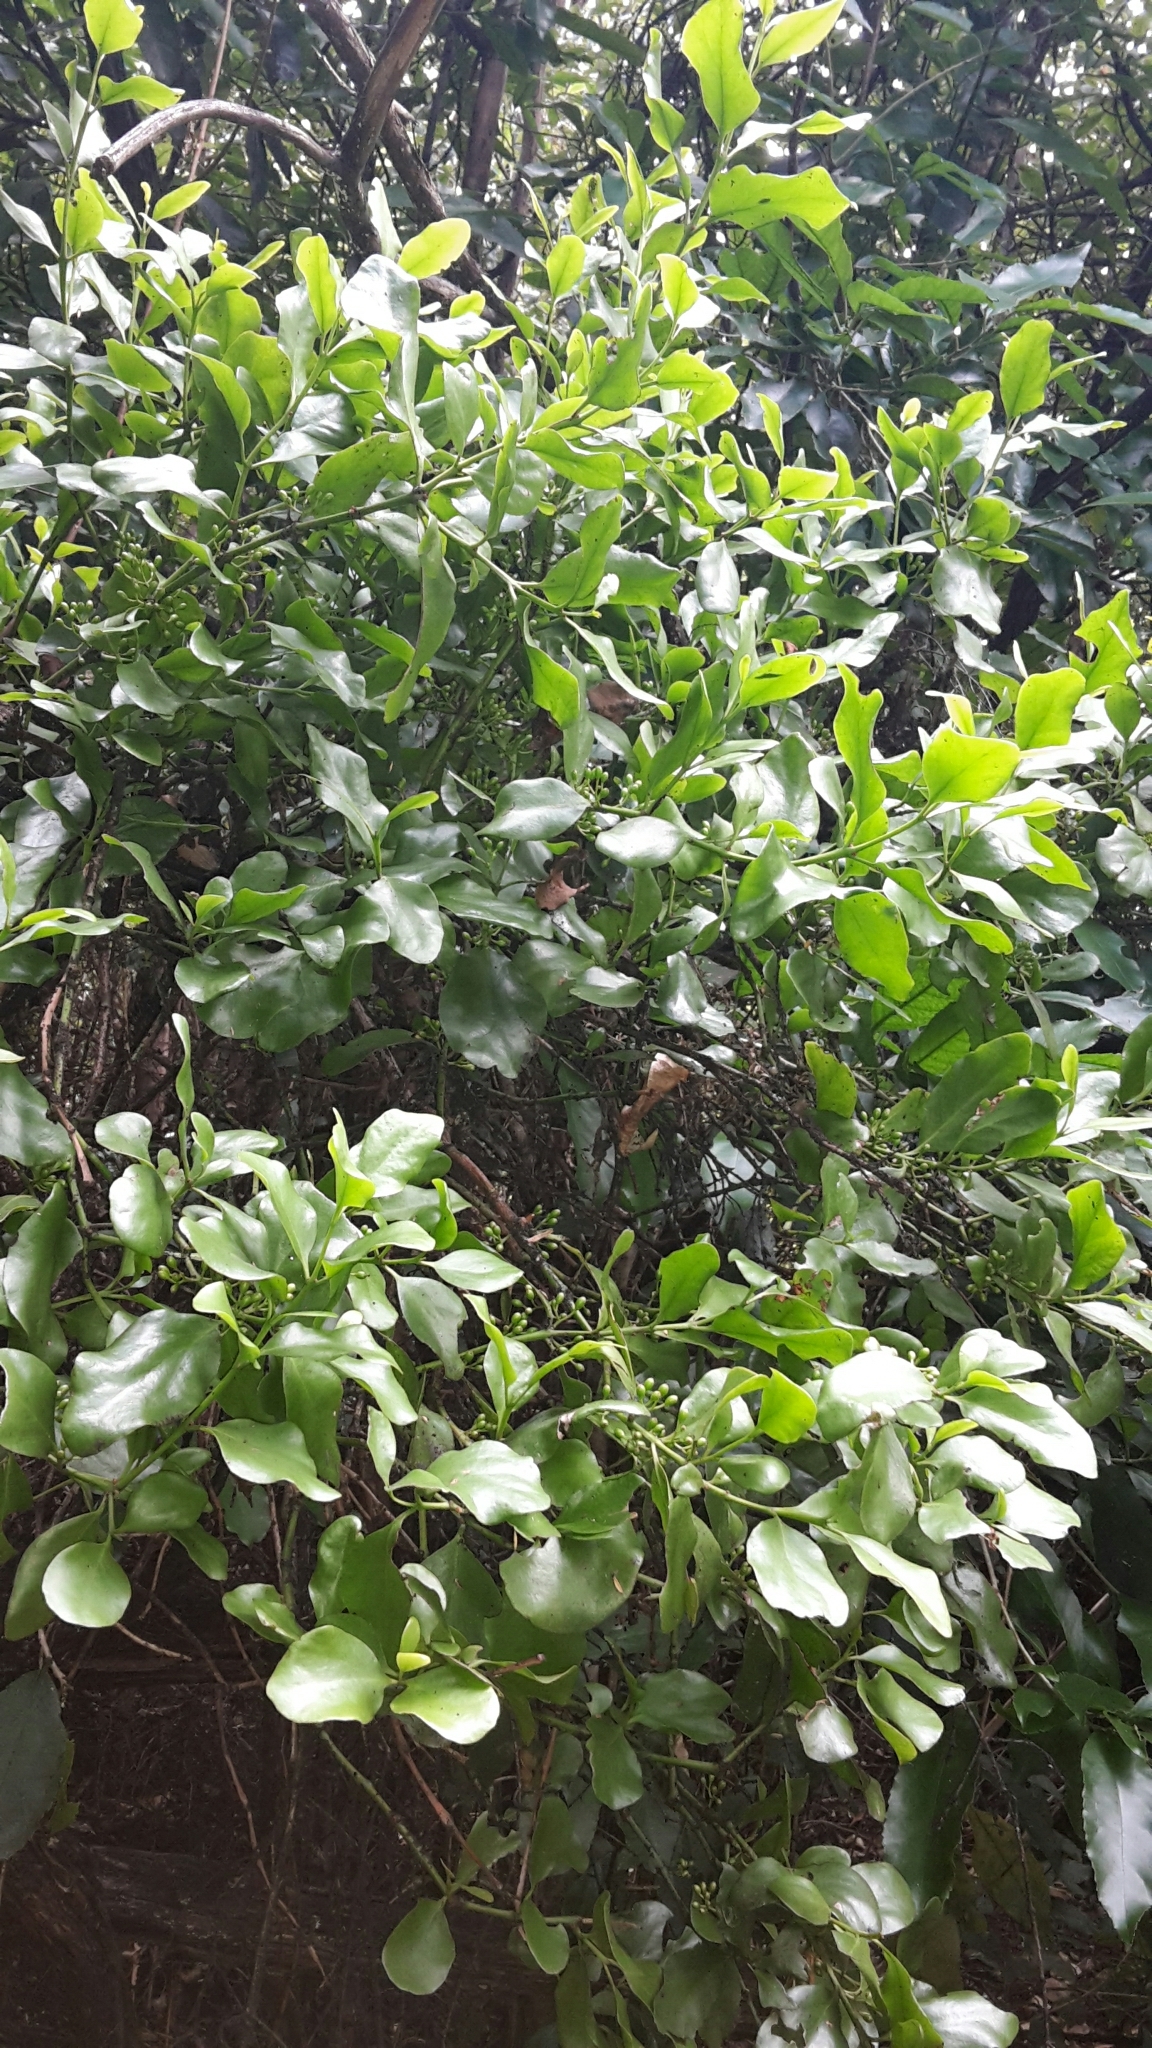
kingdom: Plantae
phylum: Tracheophyta
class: Magnoliopsida
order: Santalales
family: Loranthaceae
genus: Ileostylus
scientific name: Ileostylus micranthus
